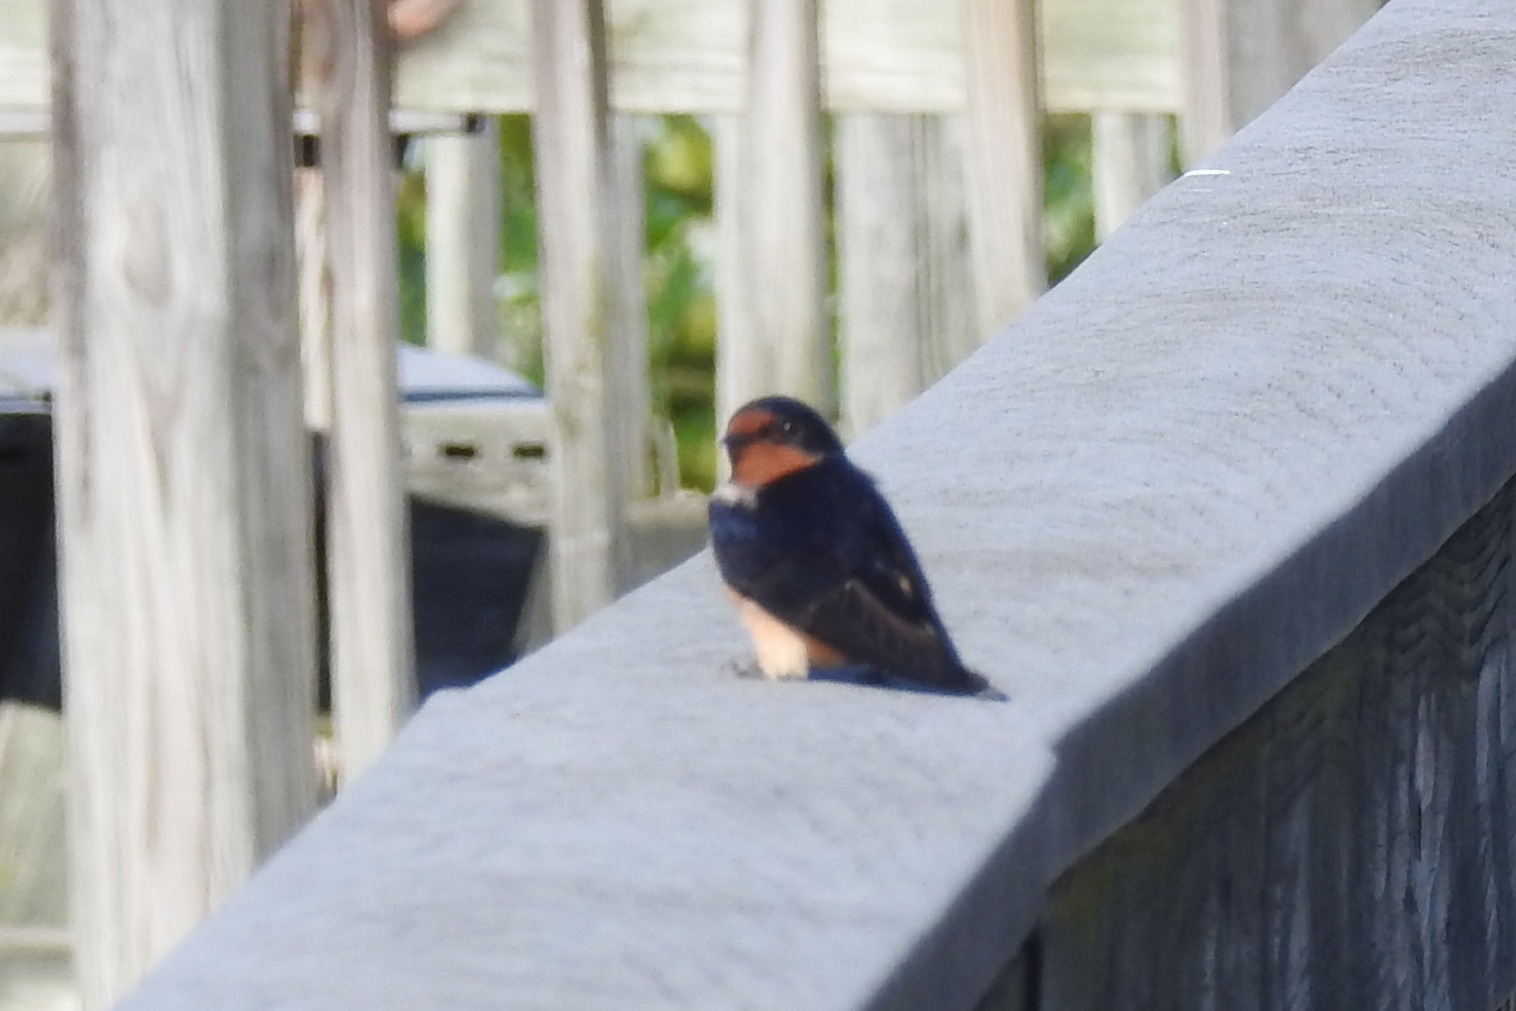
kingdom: Animalia
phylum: Chordata
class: Aves
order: Passeriformes
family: Hirundinidae
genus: Hirundo
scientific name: Hirundo rustica
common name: Barn swallow
